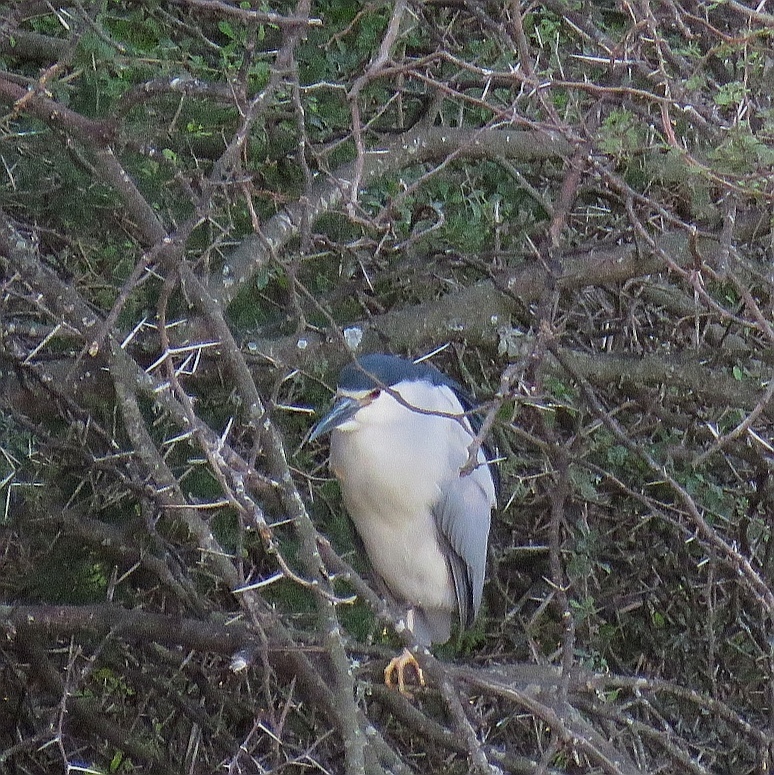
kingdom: Animalia
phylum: Chordata
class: Aves
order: Pelecaniformes
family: Ardeidae
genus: Nycticorax
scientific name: Nycticorax nycticorax
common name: Black-crowned night heron
